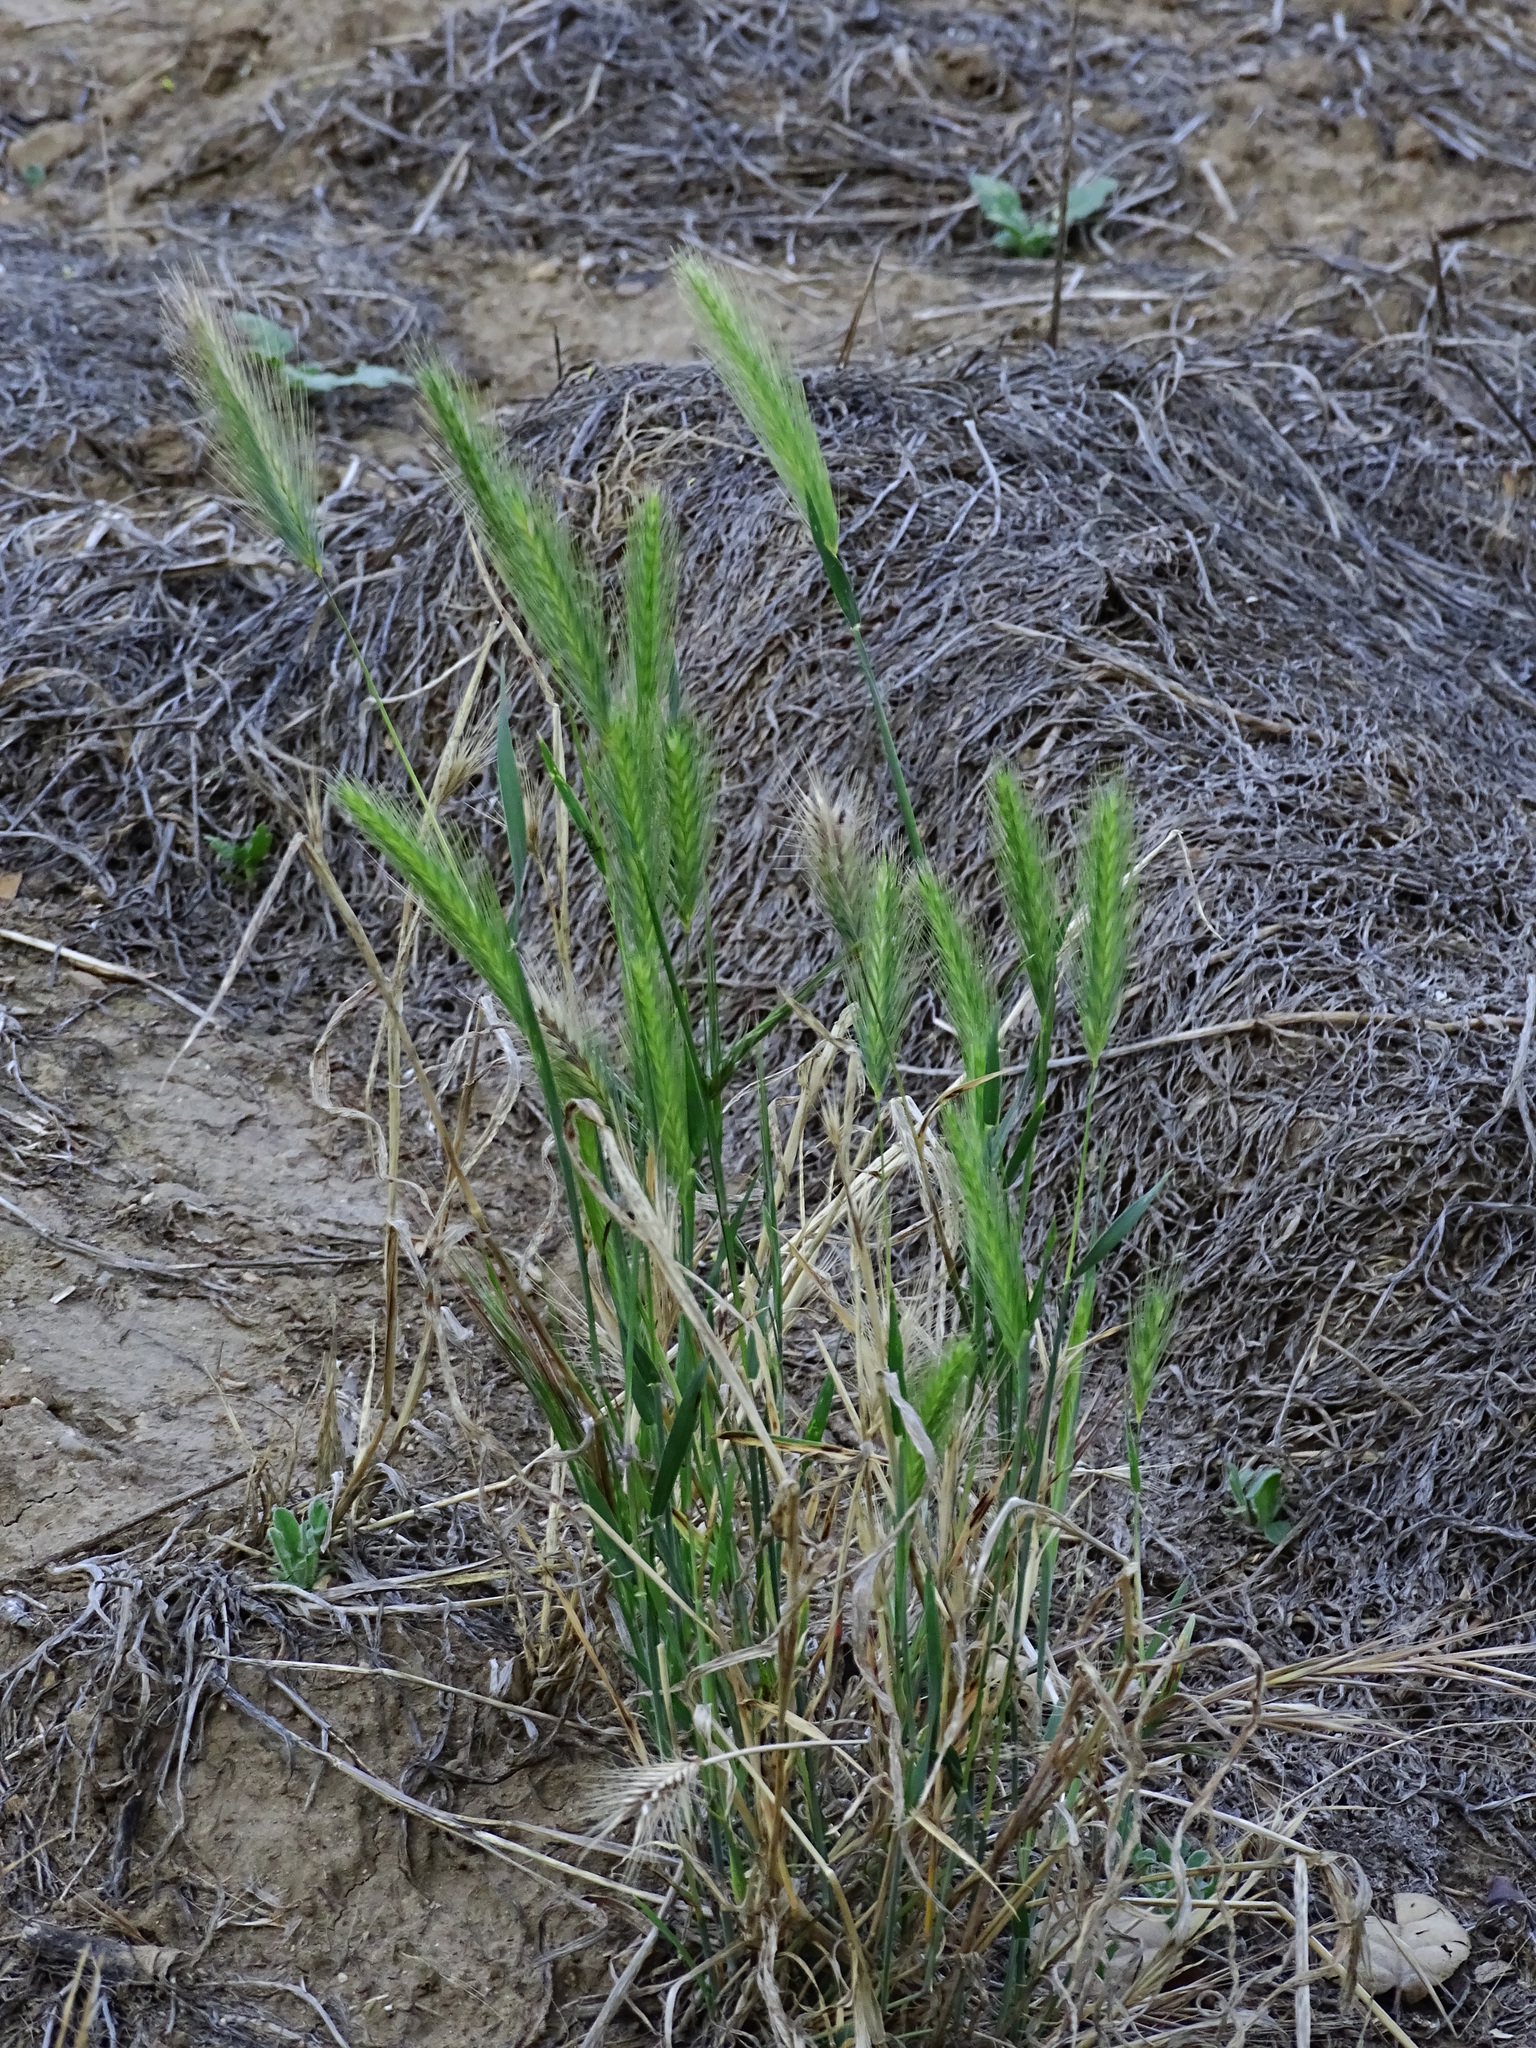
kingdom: Plantae
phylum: Tracheophyta
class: Liliopsida
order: Poales
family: Poaceae
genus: Hordeum
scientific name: Hordeum murinum
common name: Wall barley
